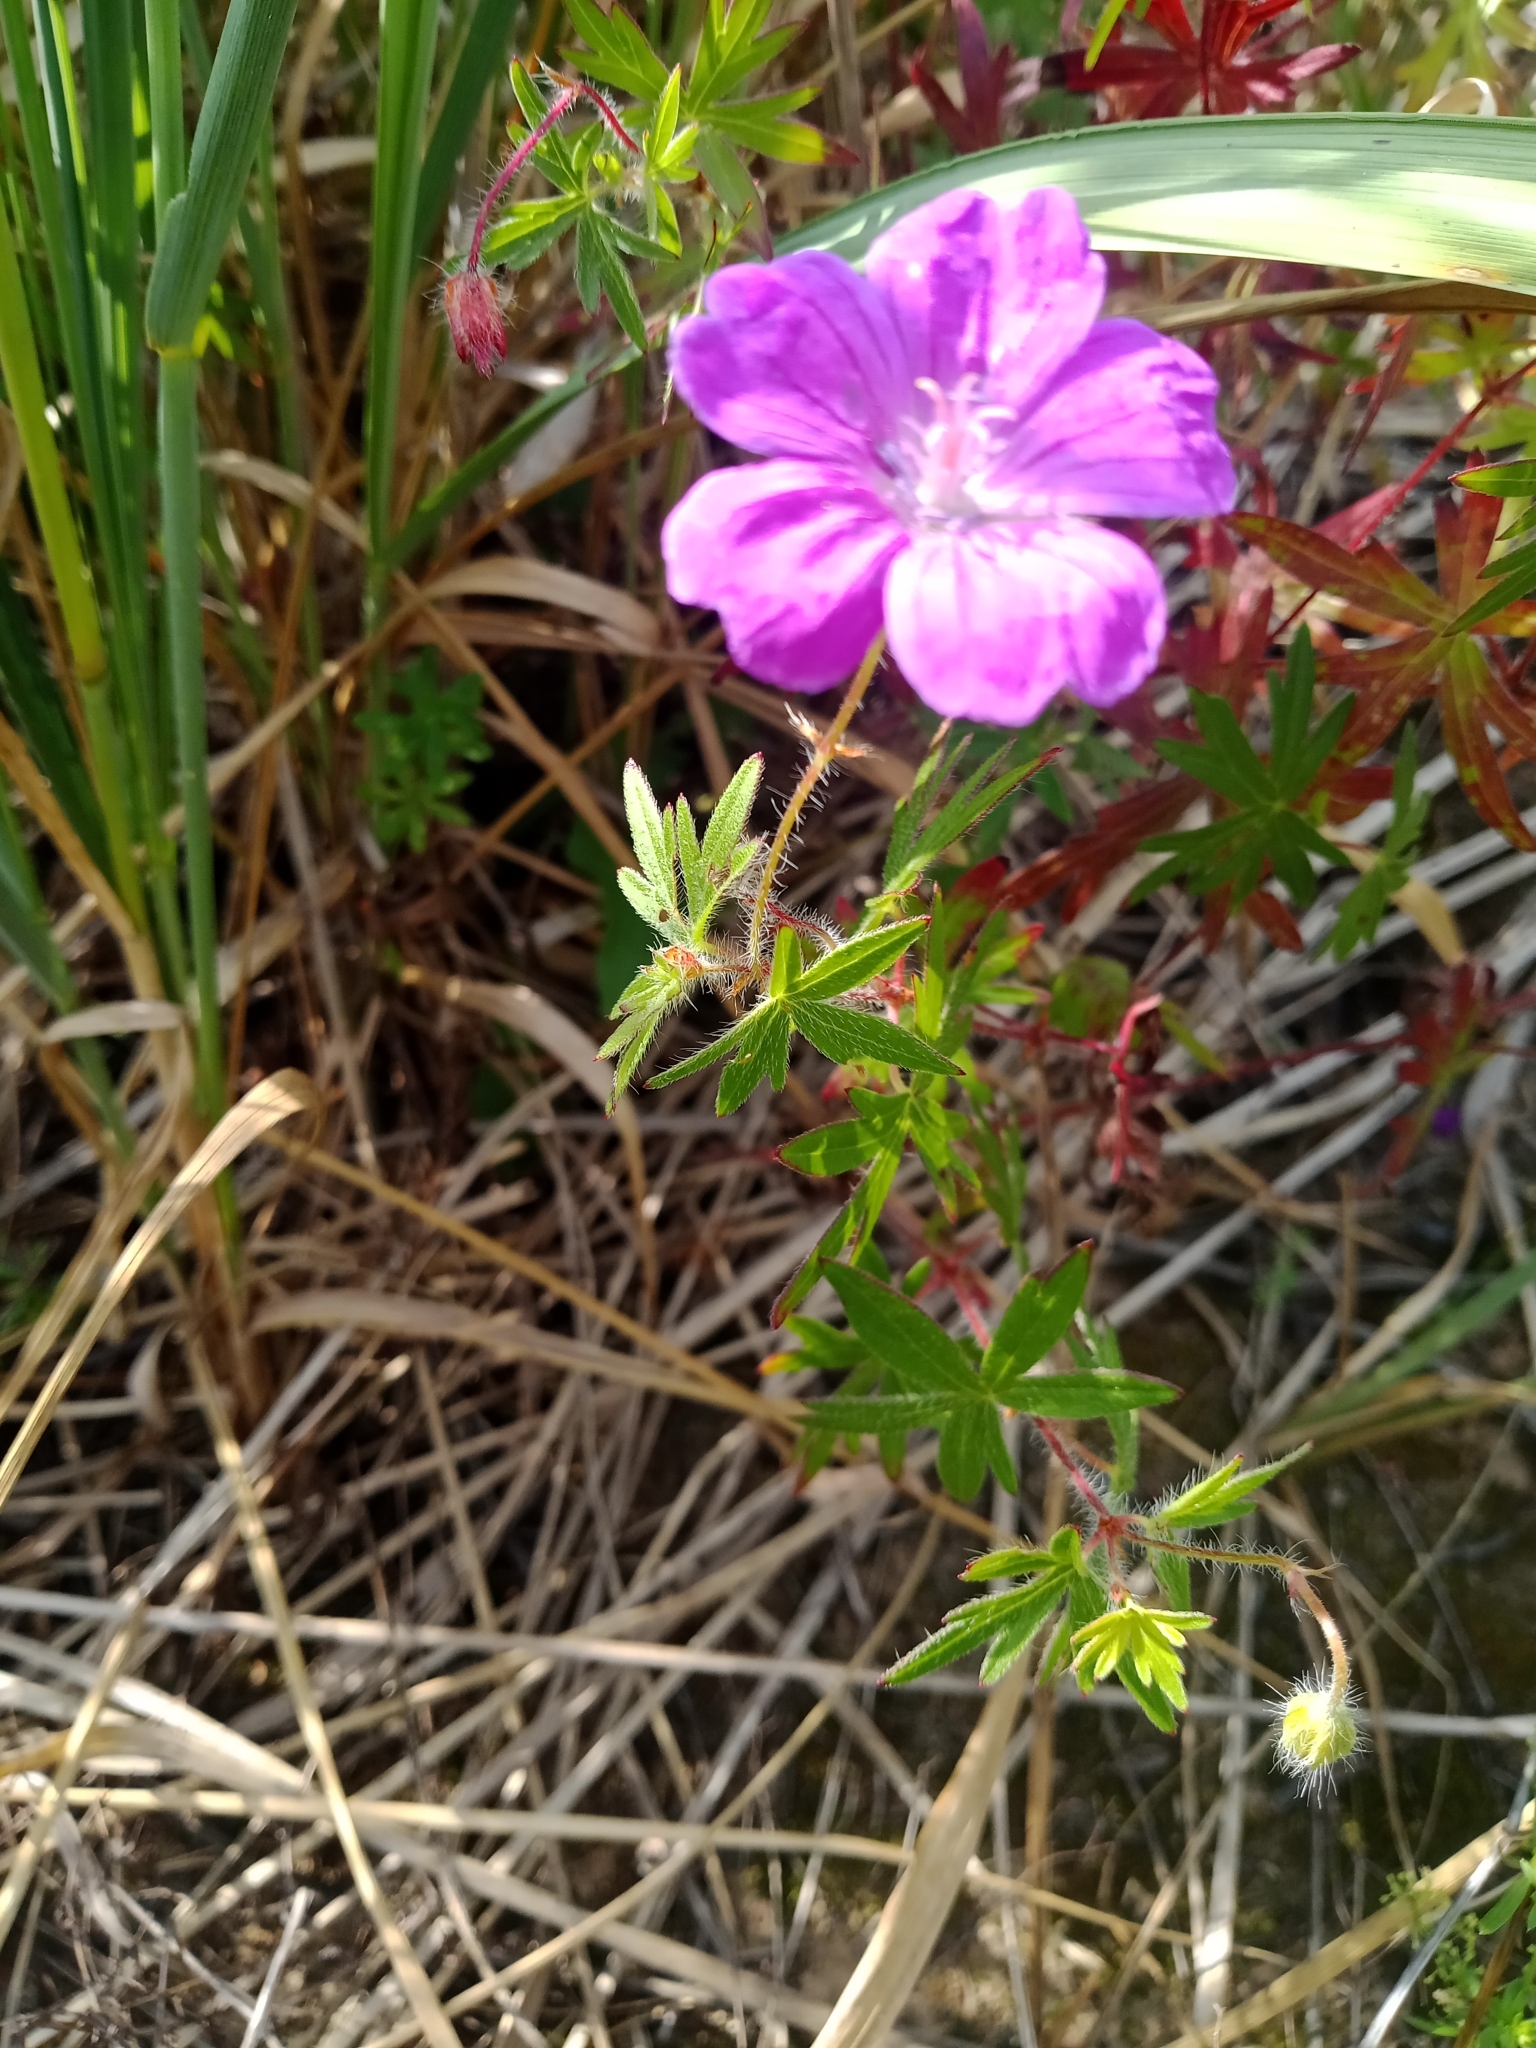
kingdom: Plantae
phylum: Tracheophyta
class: Magnoliopsida
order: Geraniales
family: Geraniaceae
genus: Geranium
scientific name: Geranium sanguineum
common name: Bloody crane's-bill
